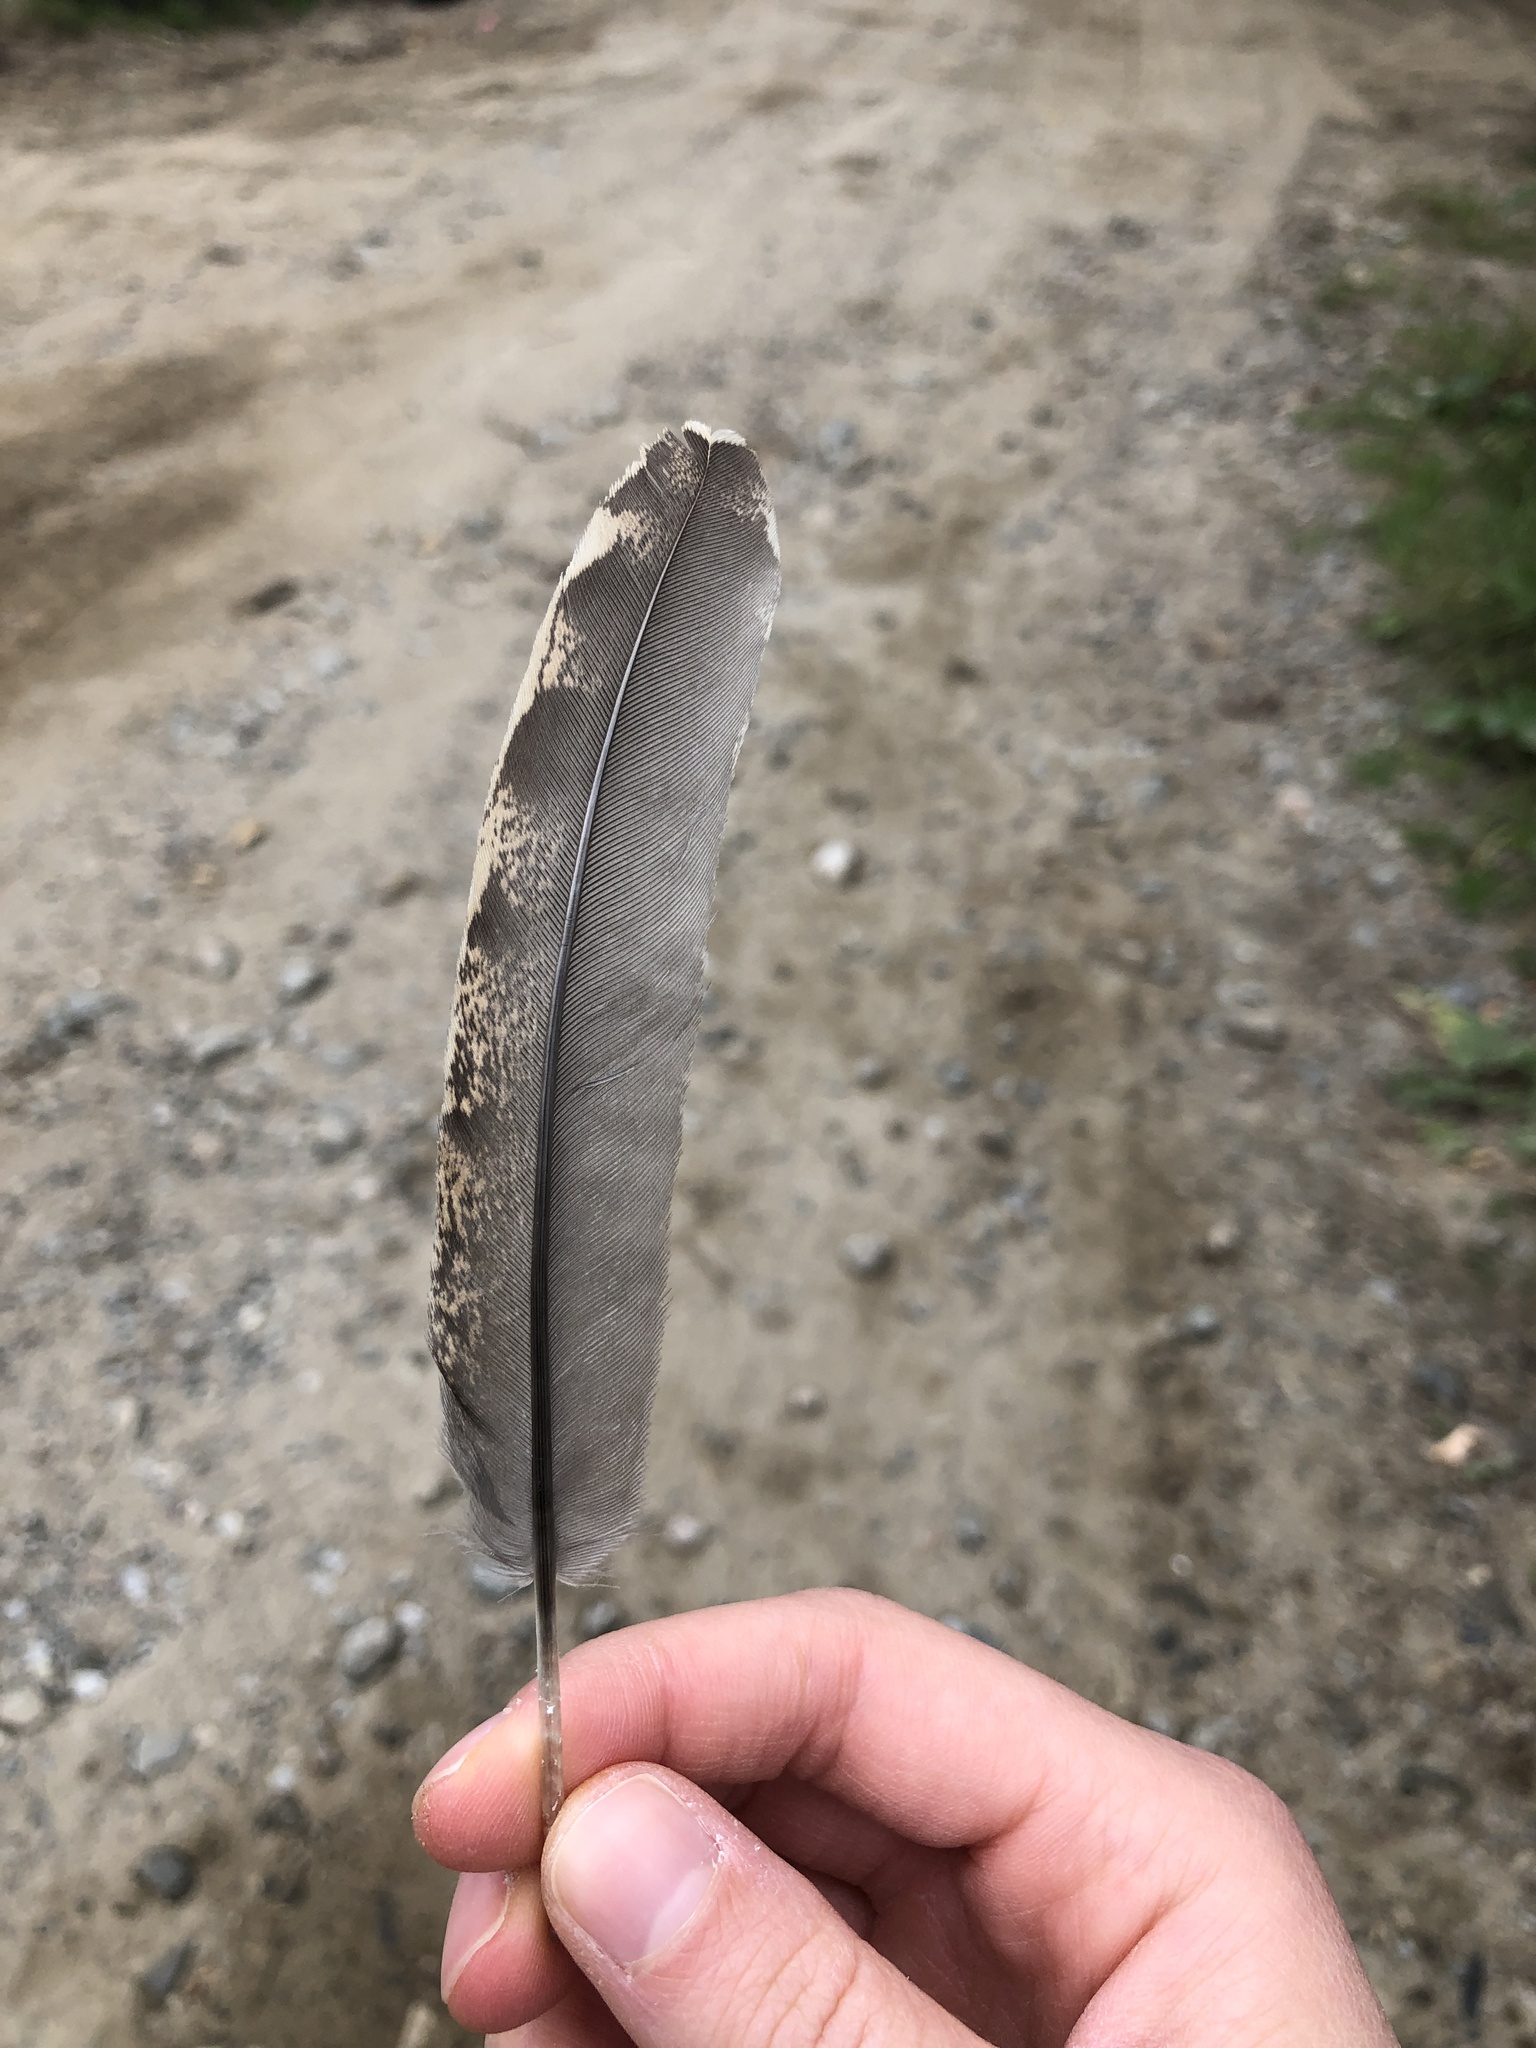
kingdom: Animalia
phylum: Chordata
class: Aves
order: Galliformes
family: Phasianidae
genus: Bonasa
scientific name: Bonasa umbellus
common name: Ruffed grouse
